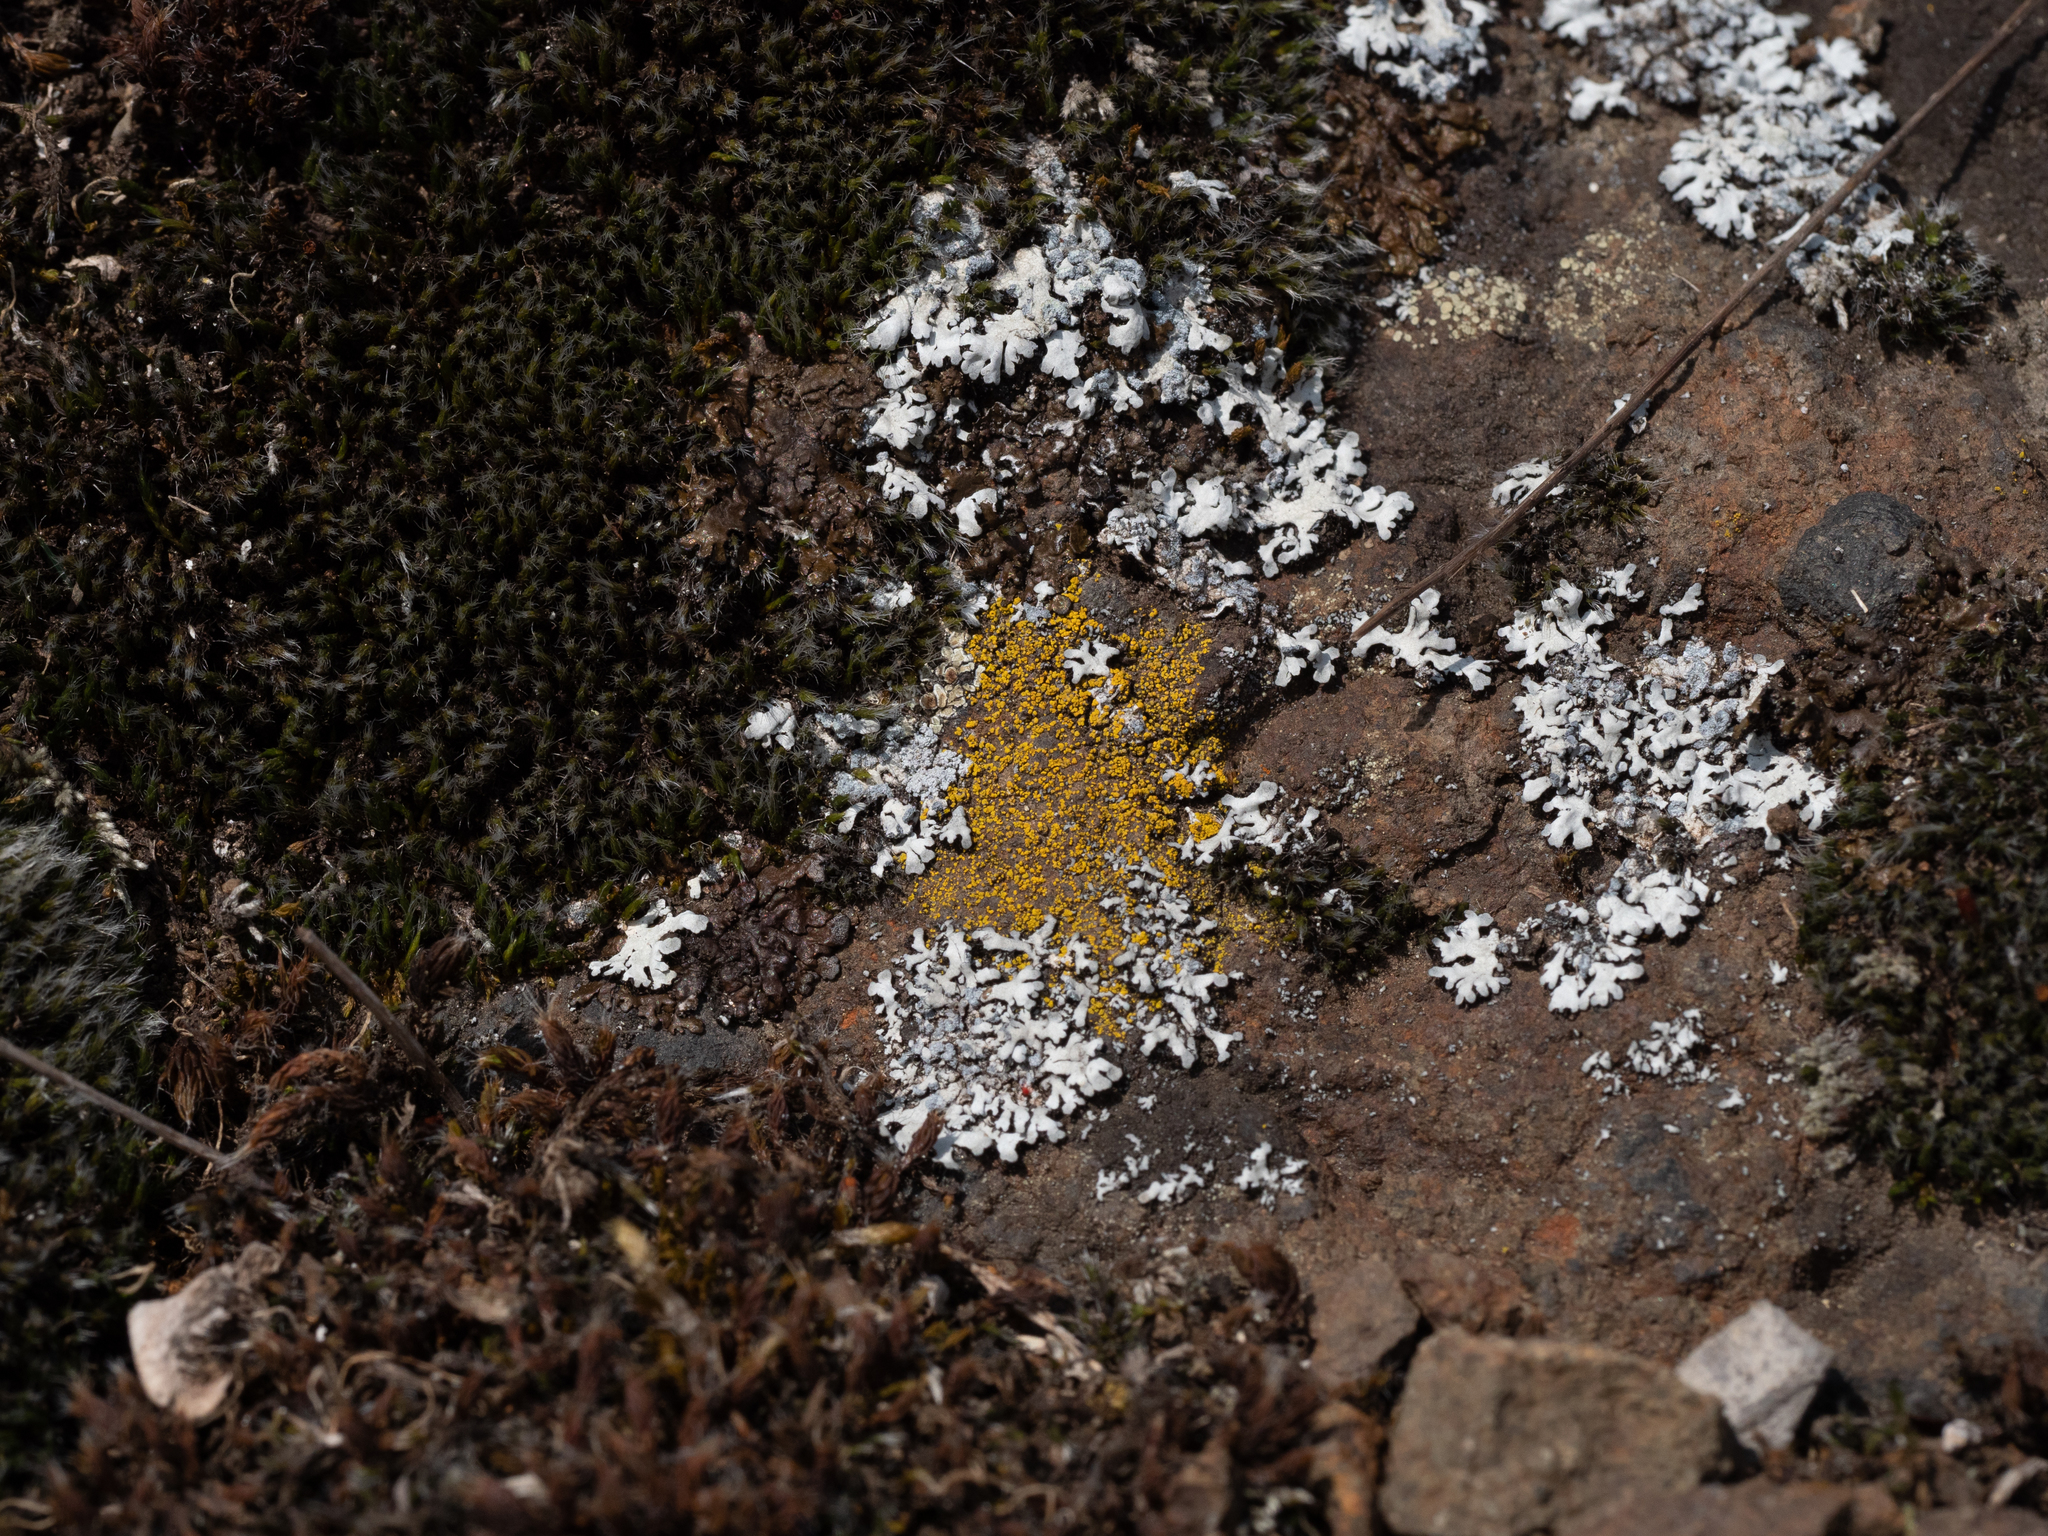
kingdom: Fungi
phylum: Ascomycota
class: Candelariomycetes
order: Candelariales
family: Candelariaceae
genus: Candelariella
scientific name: Candelariella vitellina
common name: Common goldspeck
